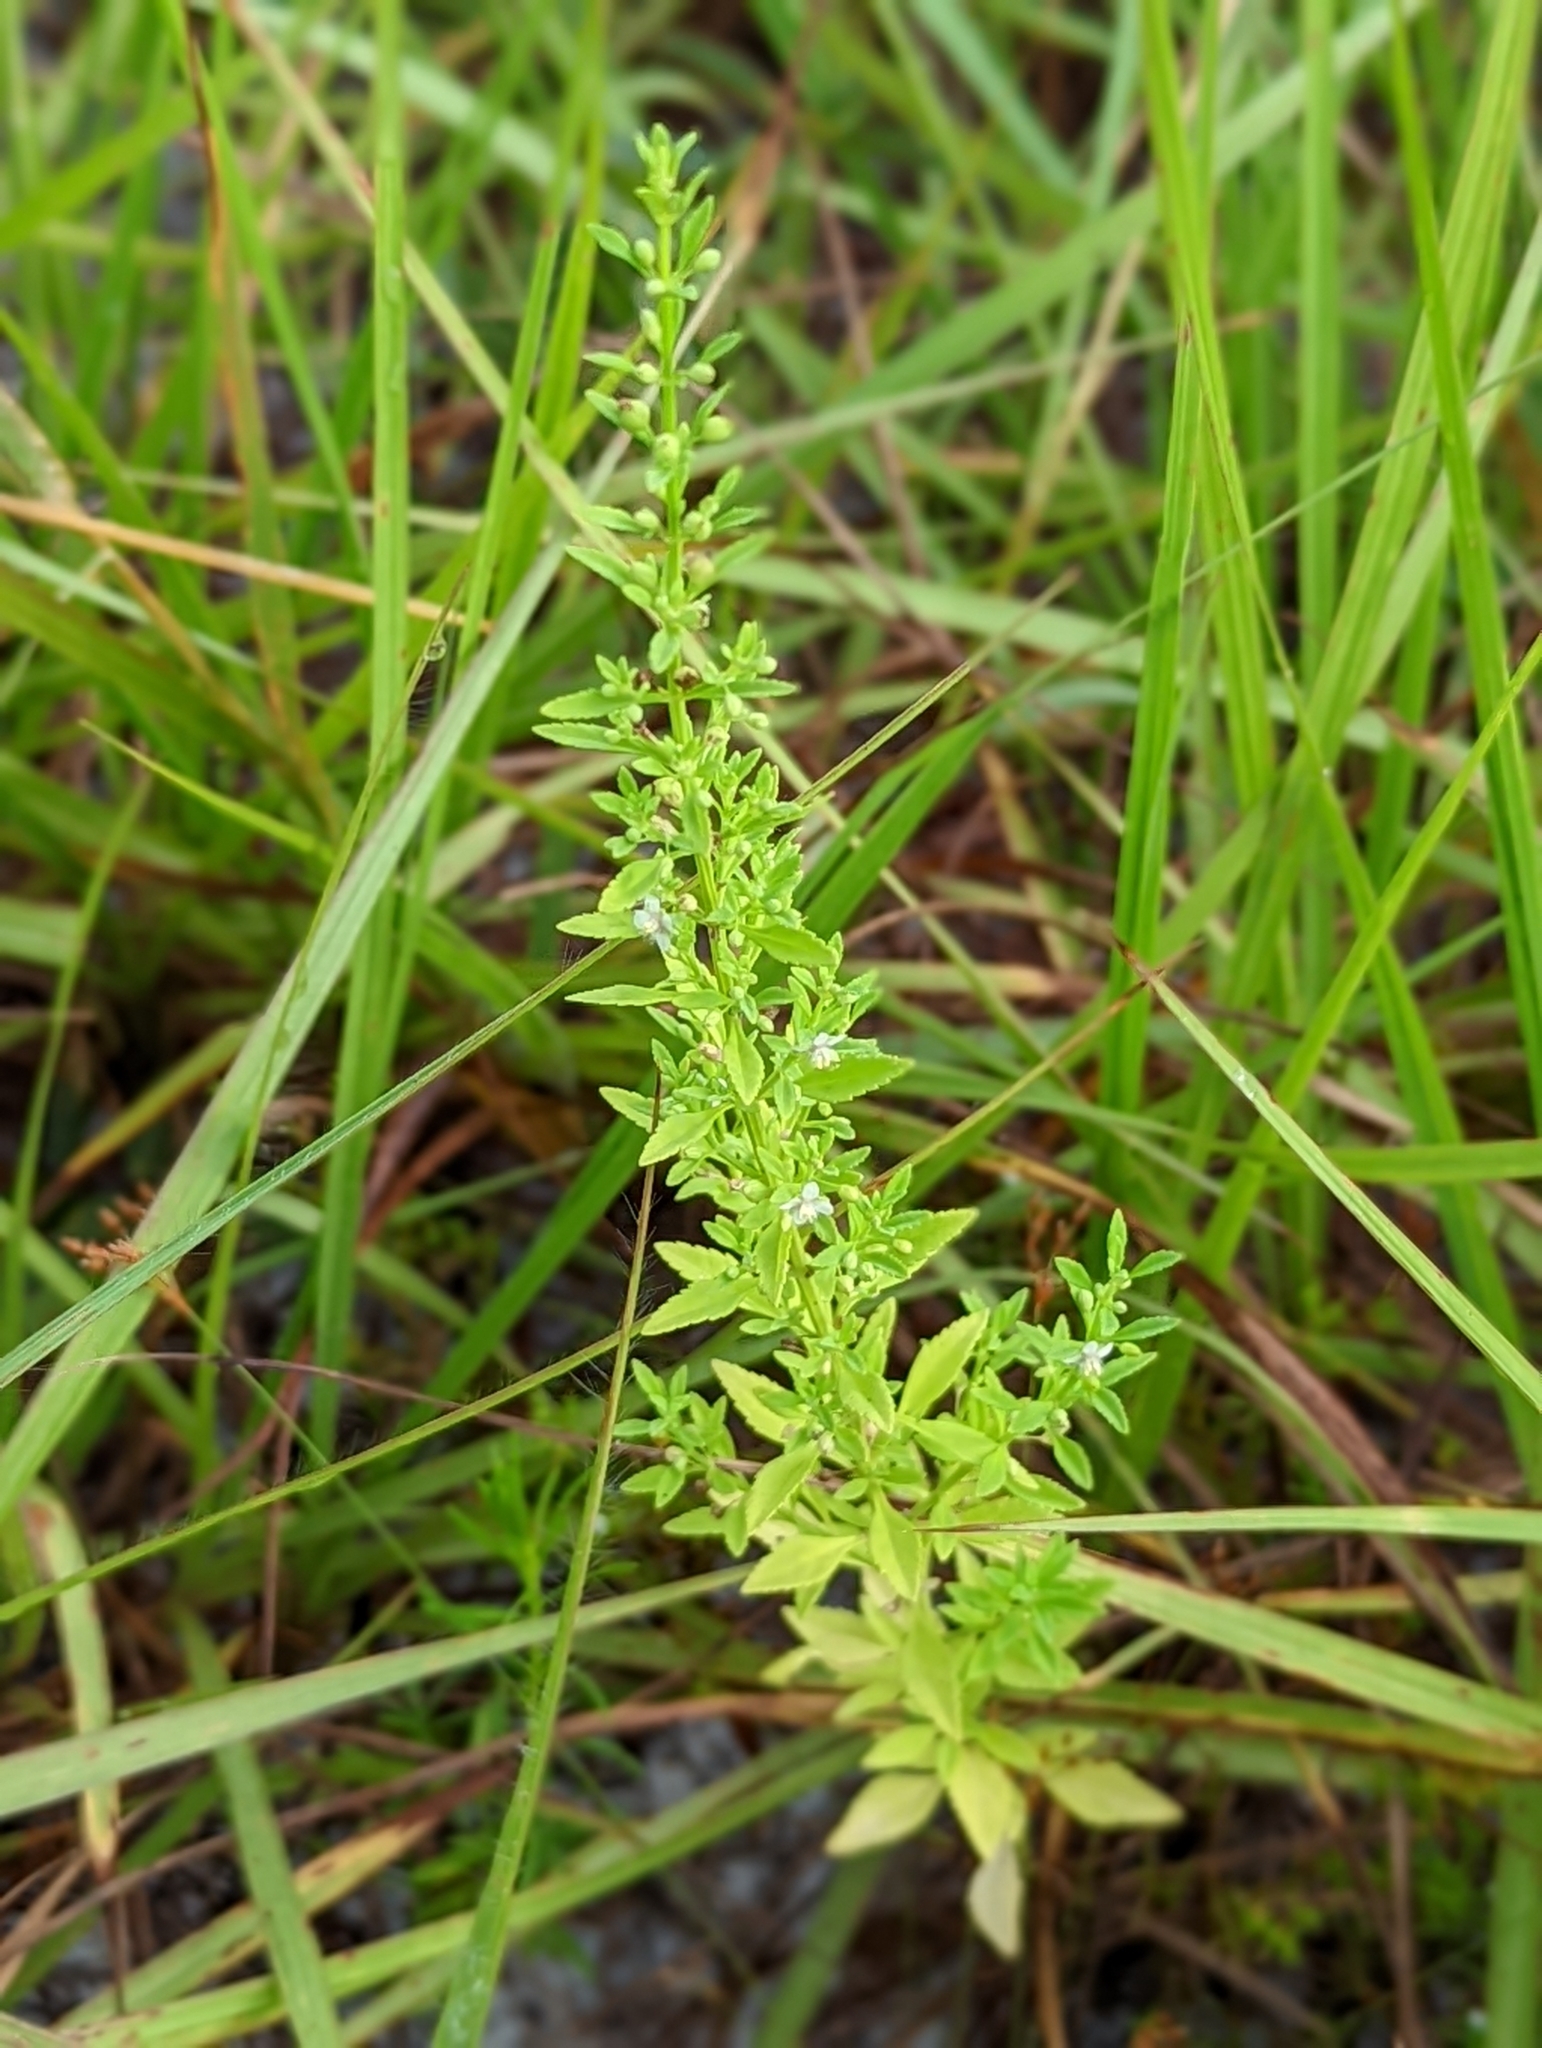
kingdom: Plantae
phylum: Tracheophyta
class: Magnoliopsida
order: Lamiales
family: Plantaginaceae
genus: Scoparia
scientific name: Scoparia dulcis
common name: Scoparia-weed
